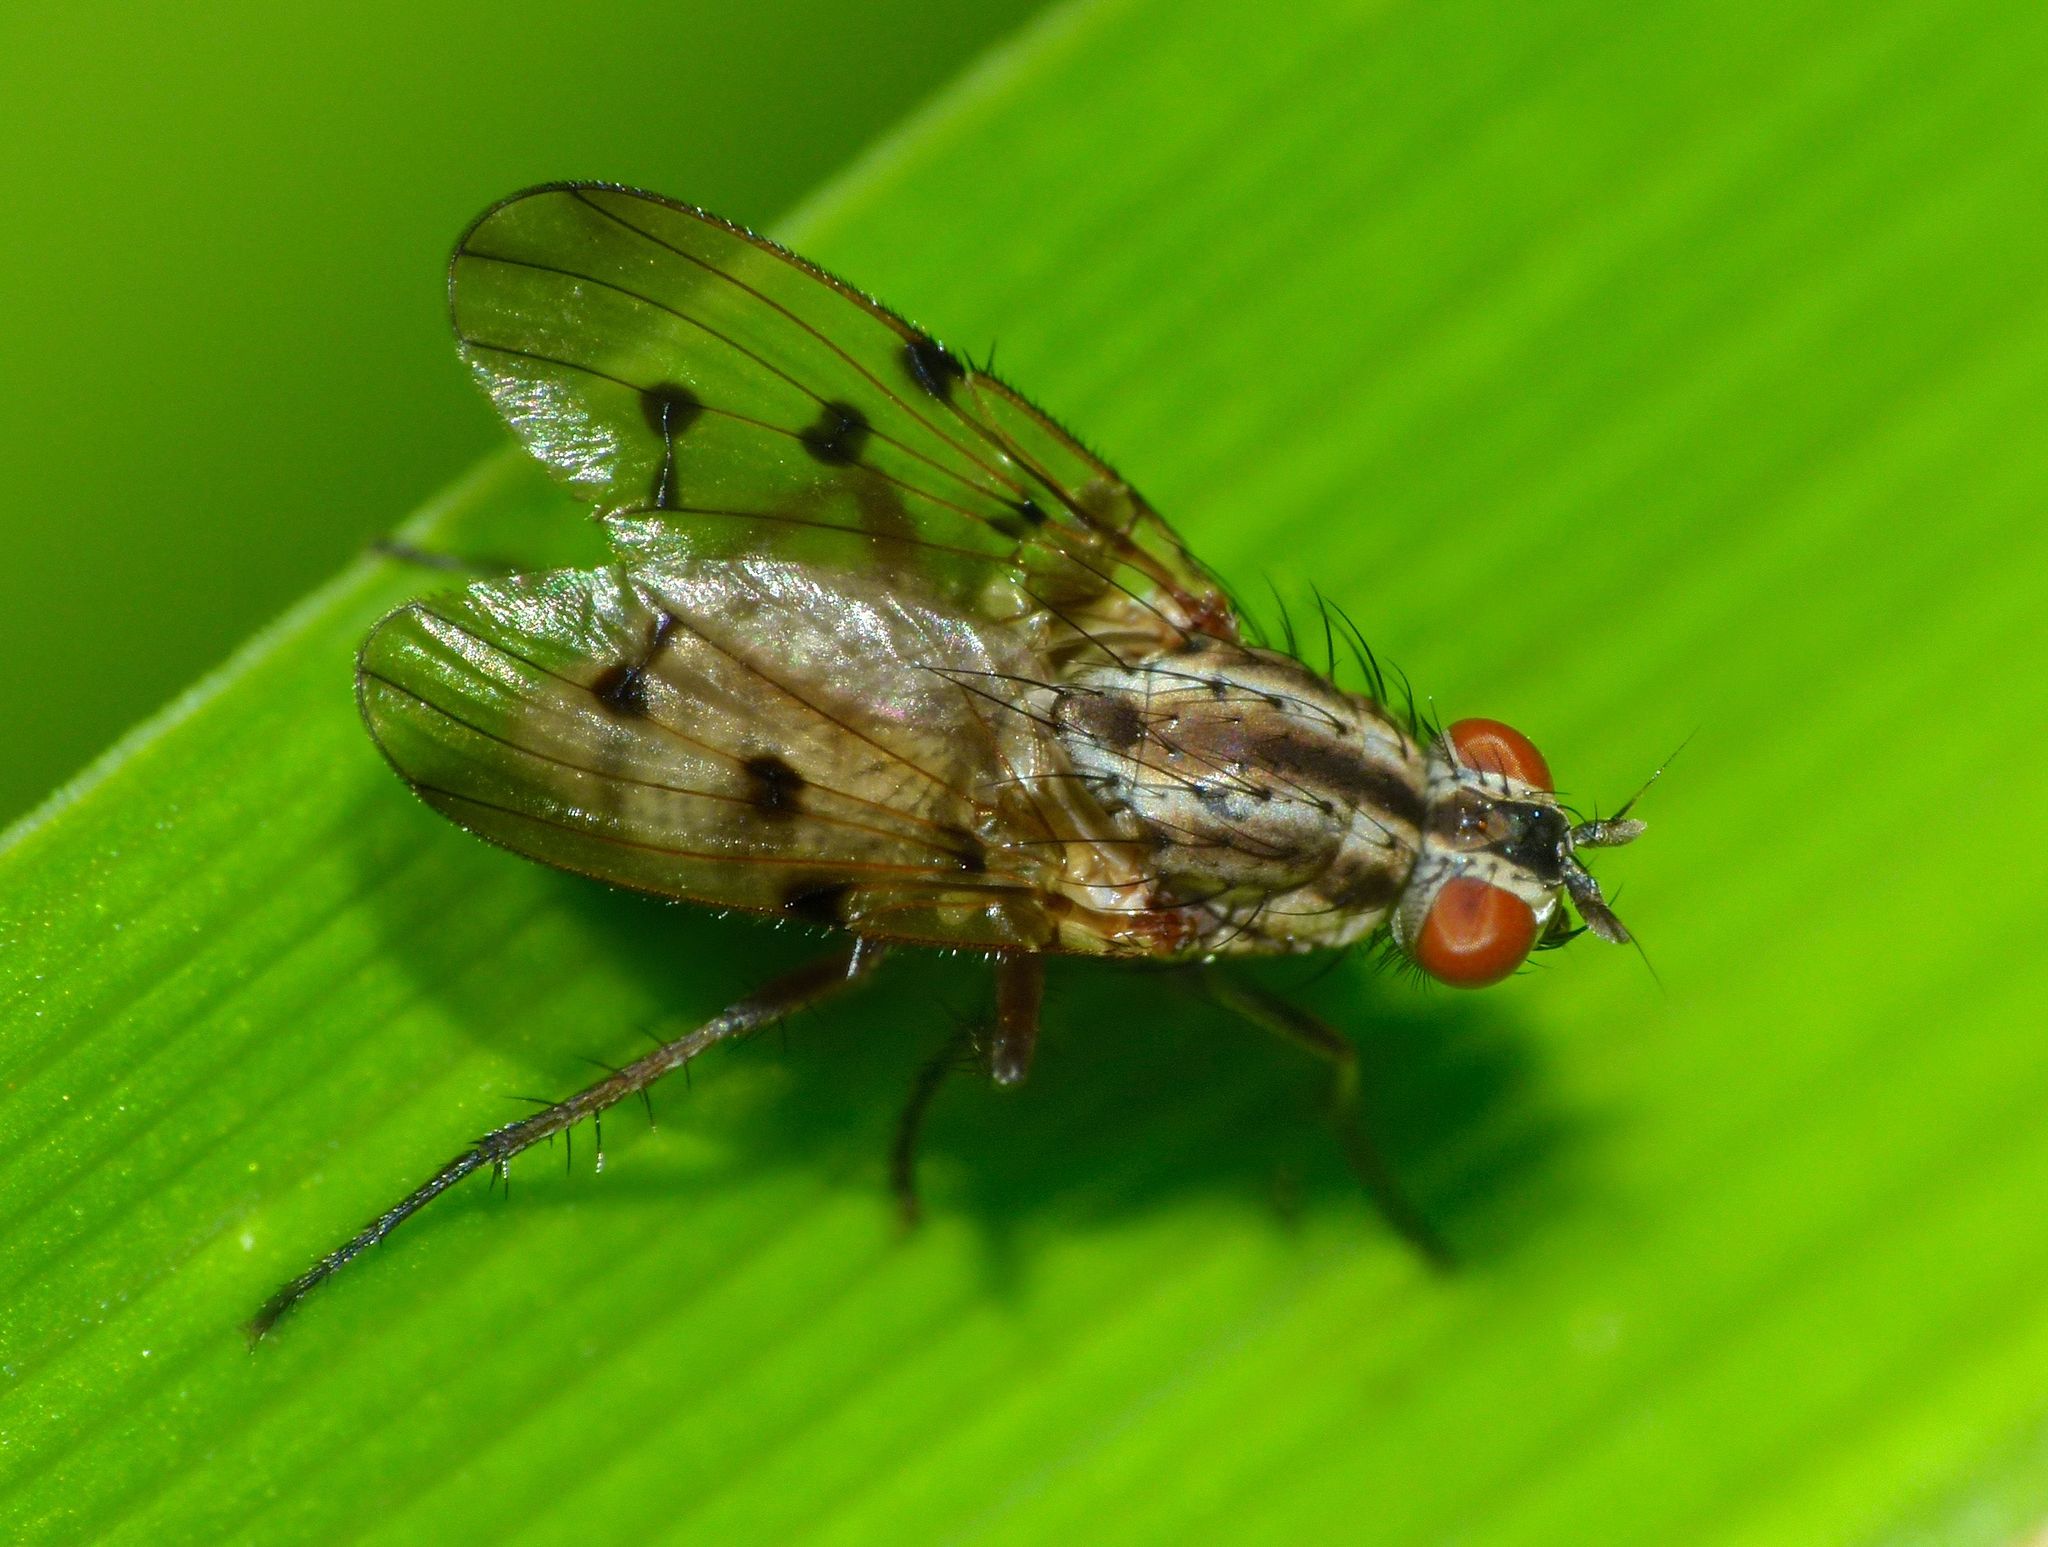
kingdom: Animalia
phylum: Arthropoda
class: Insecta
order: Diptera
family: Anthomyiidae
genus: Anthomyia
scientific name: Anthomyia punctipennis
